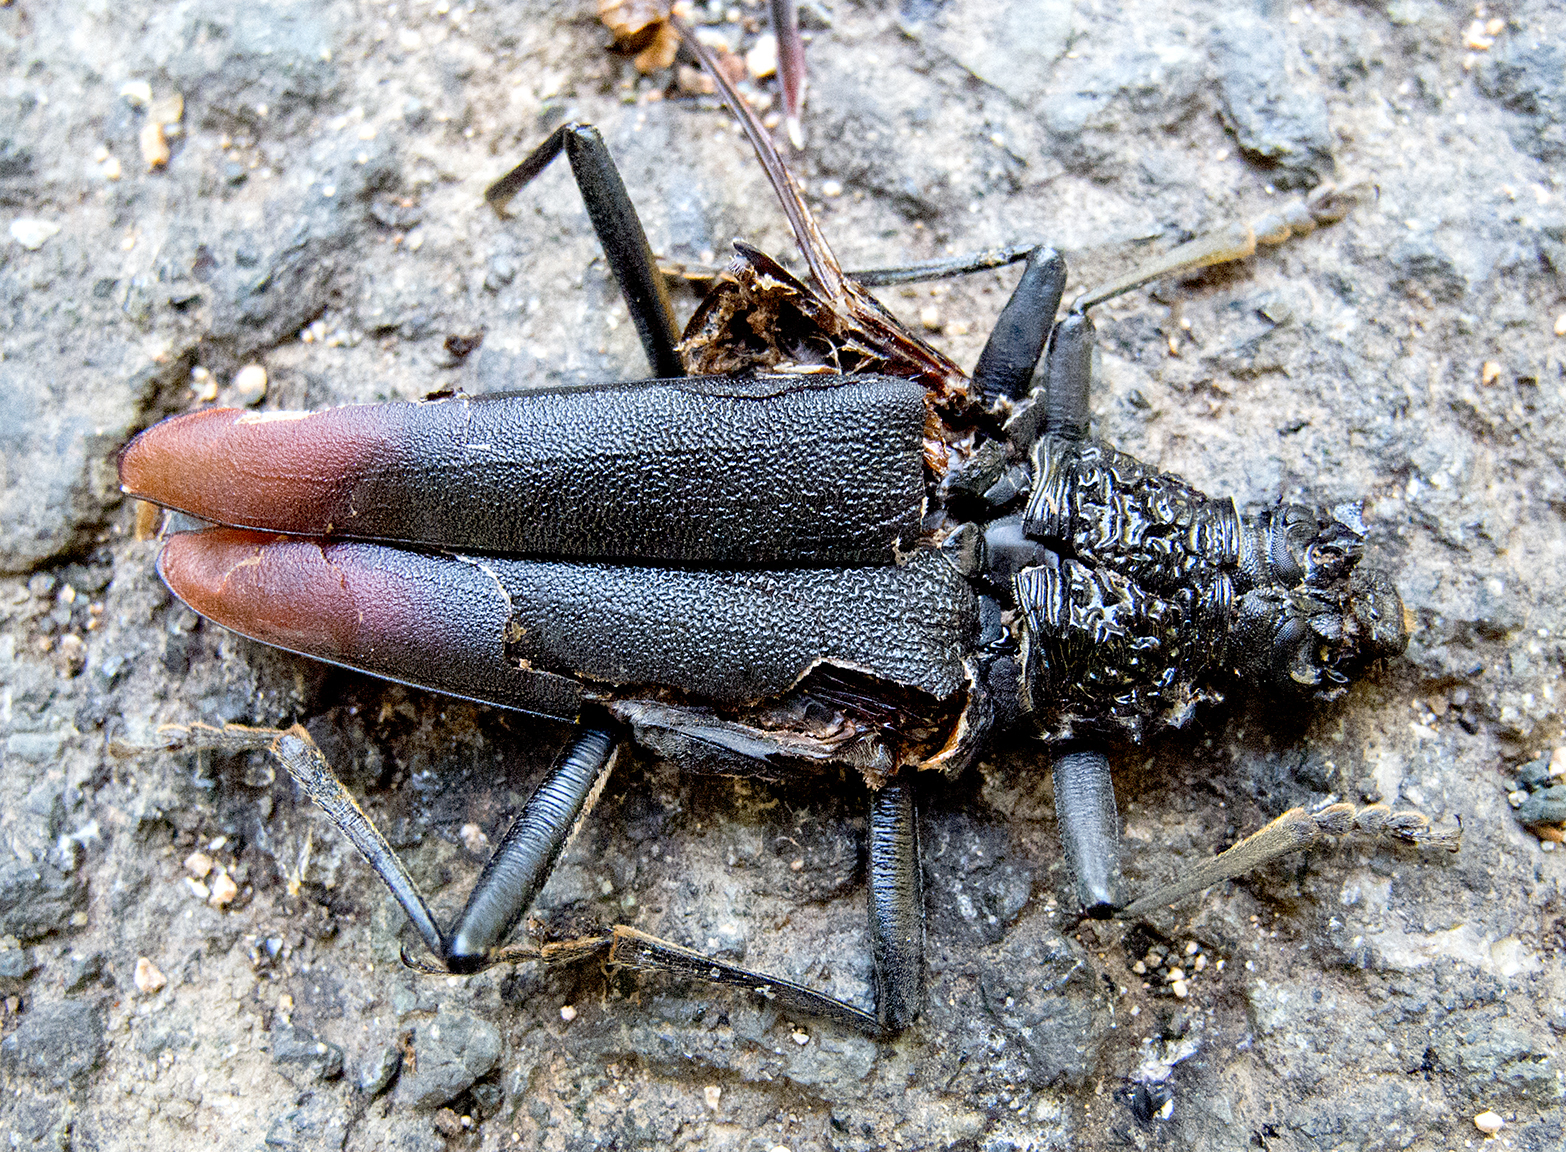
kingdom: Animalia
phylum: Arthropoda
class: Insecta
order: Coleoptera
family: Cerambycidae
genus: Cerambyx
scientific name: Cerambyx cerdo
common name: Cerambyx longicorn
